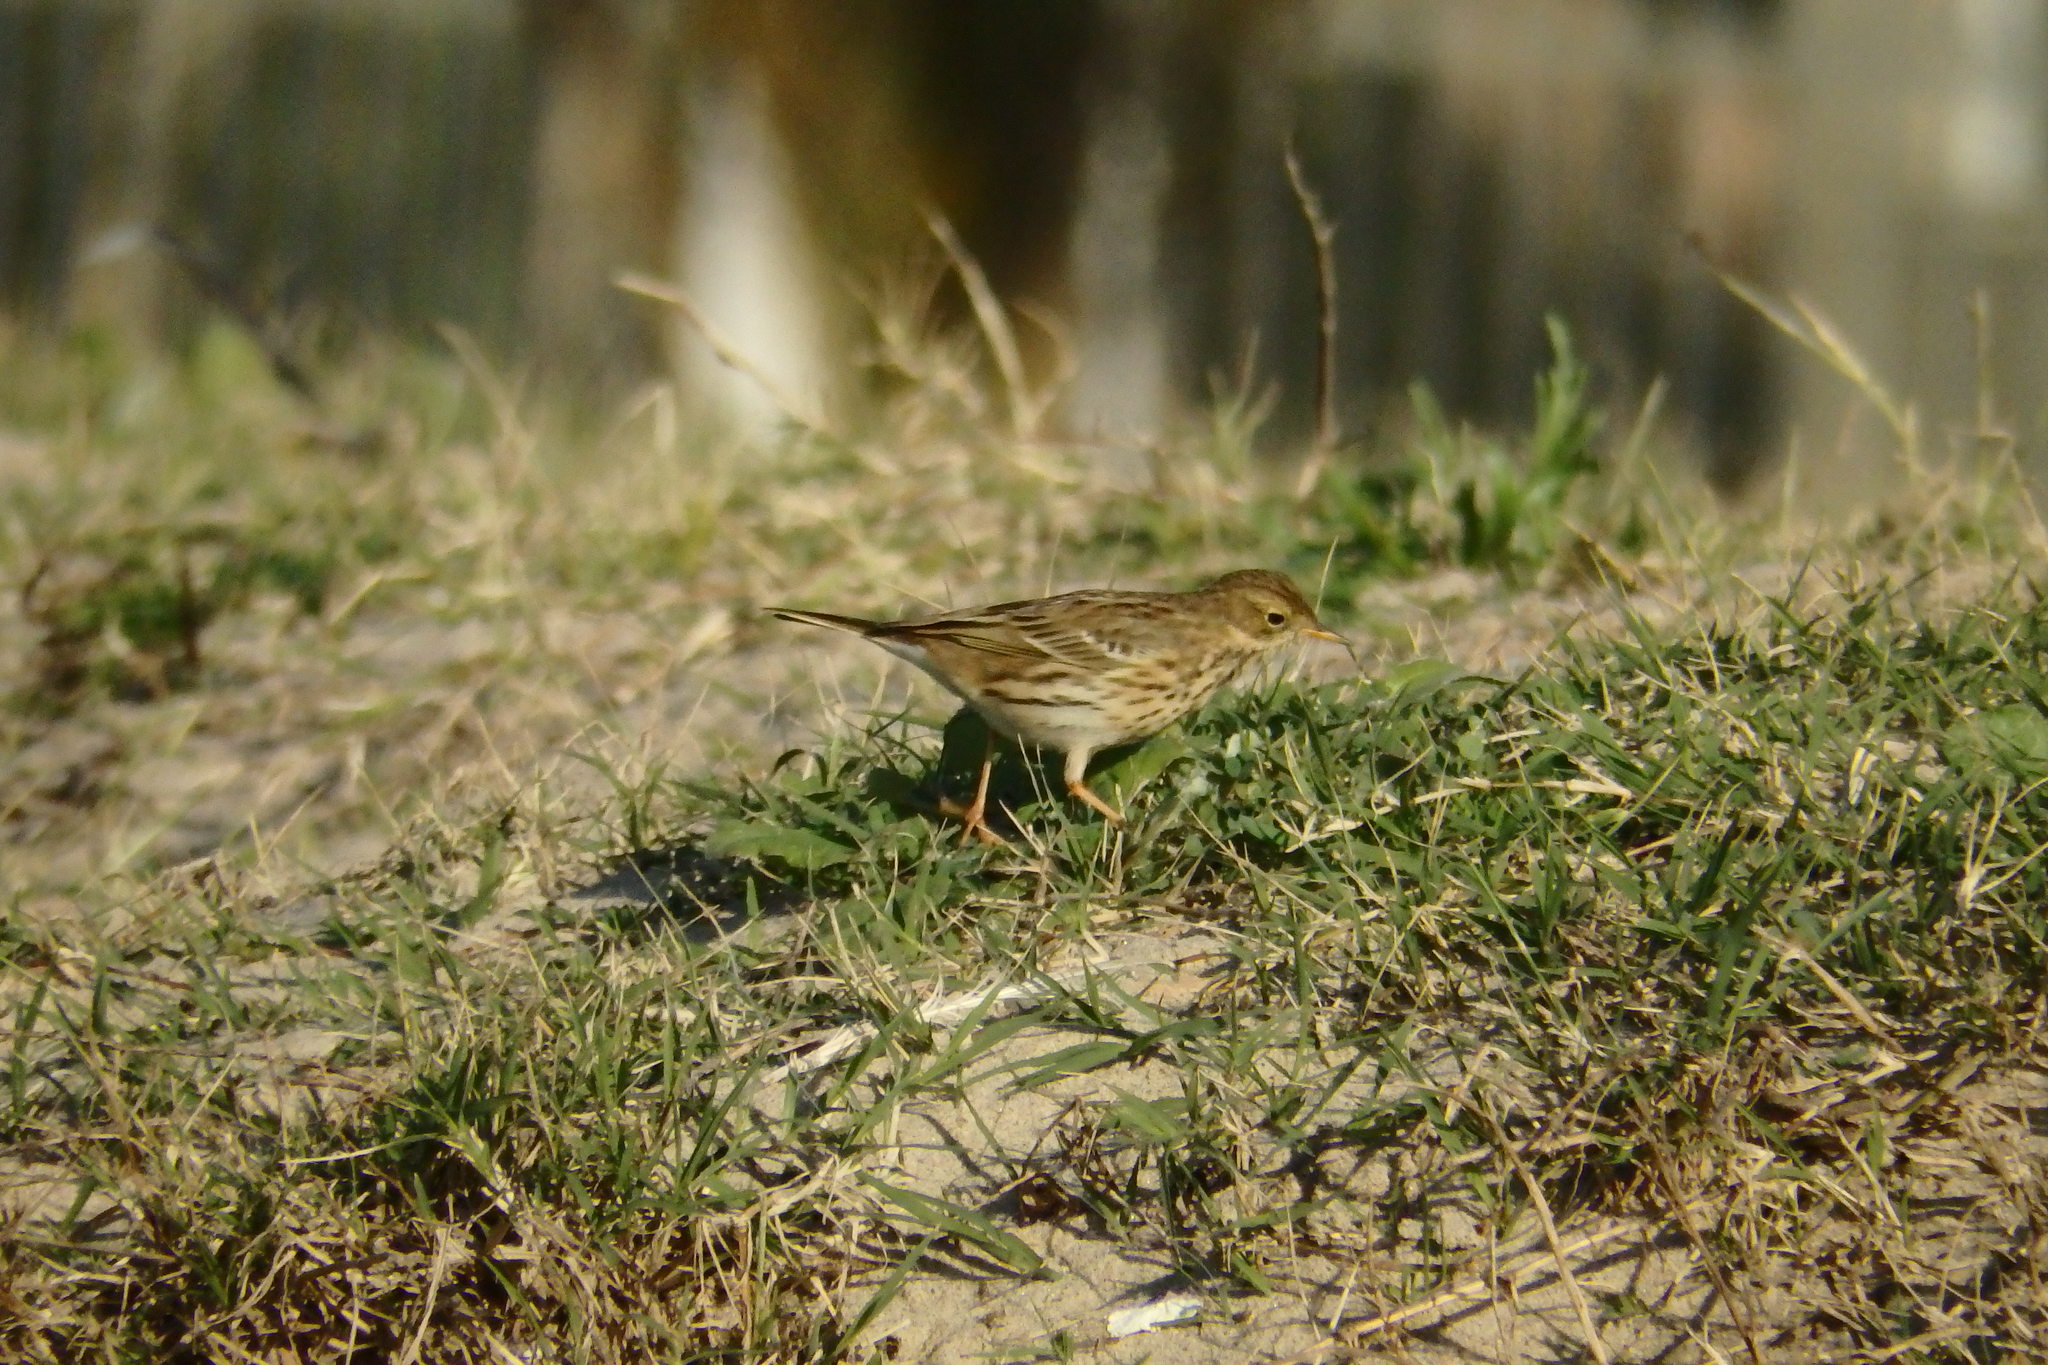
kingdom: Animalia
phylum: Chordata
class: Aves
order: Passeriformes
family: Motacillidae
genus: Anthus
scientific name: Anthus pratensis
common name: Meadow pipit
